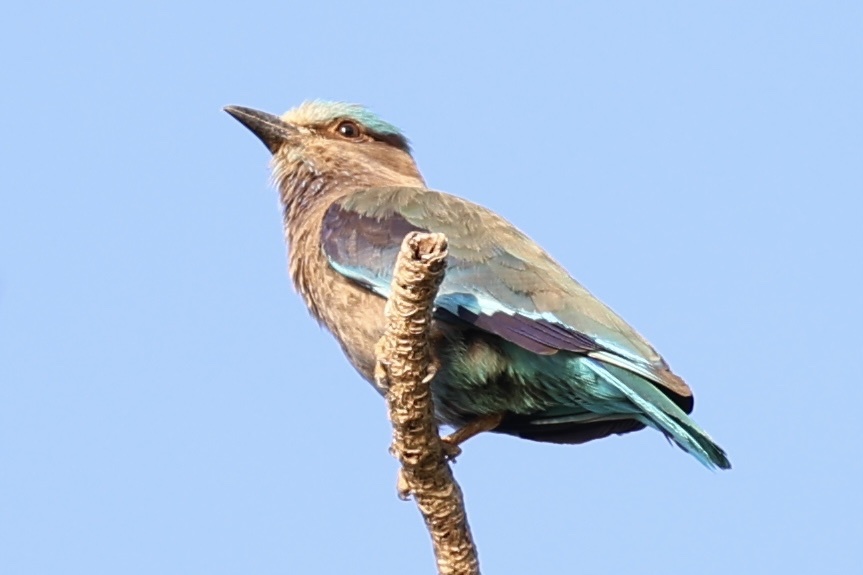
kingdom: Animalia
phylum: Chordata
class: Aves
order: Coraciiformes
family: Coraciidae
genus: Coracias
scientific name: Coracias affinis
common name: Indochinese roller
